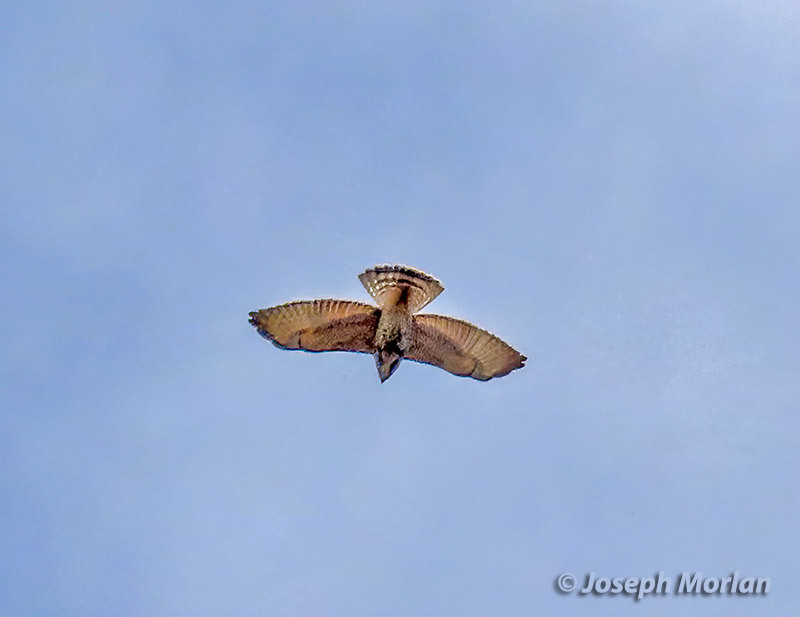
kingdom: Animalia
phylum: Chordata
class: Aves
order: Accipitriformes
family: Accipitridae
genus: Buteo
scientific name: Buteo platypterus
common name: Broad-winged hawk
